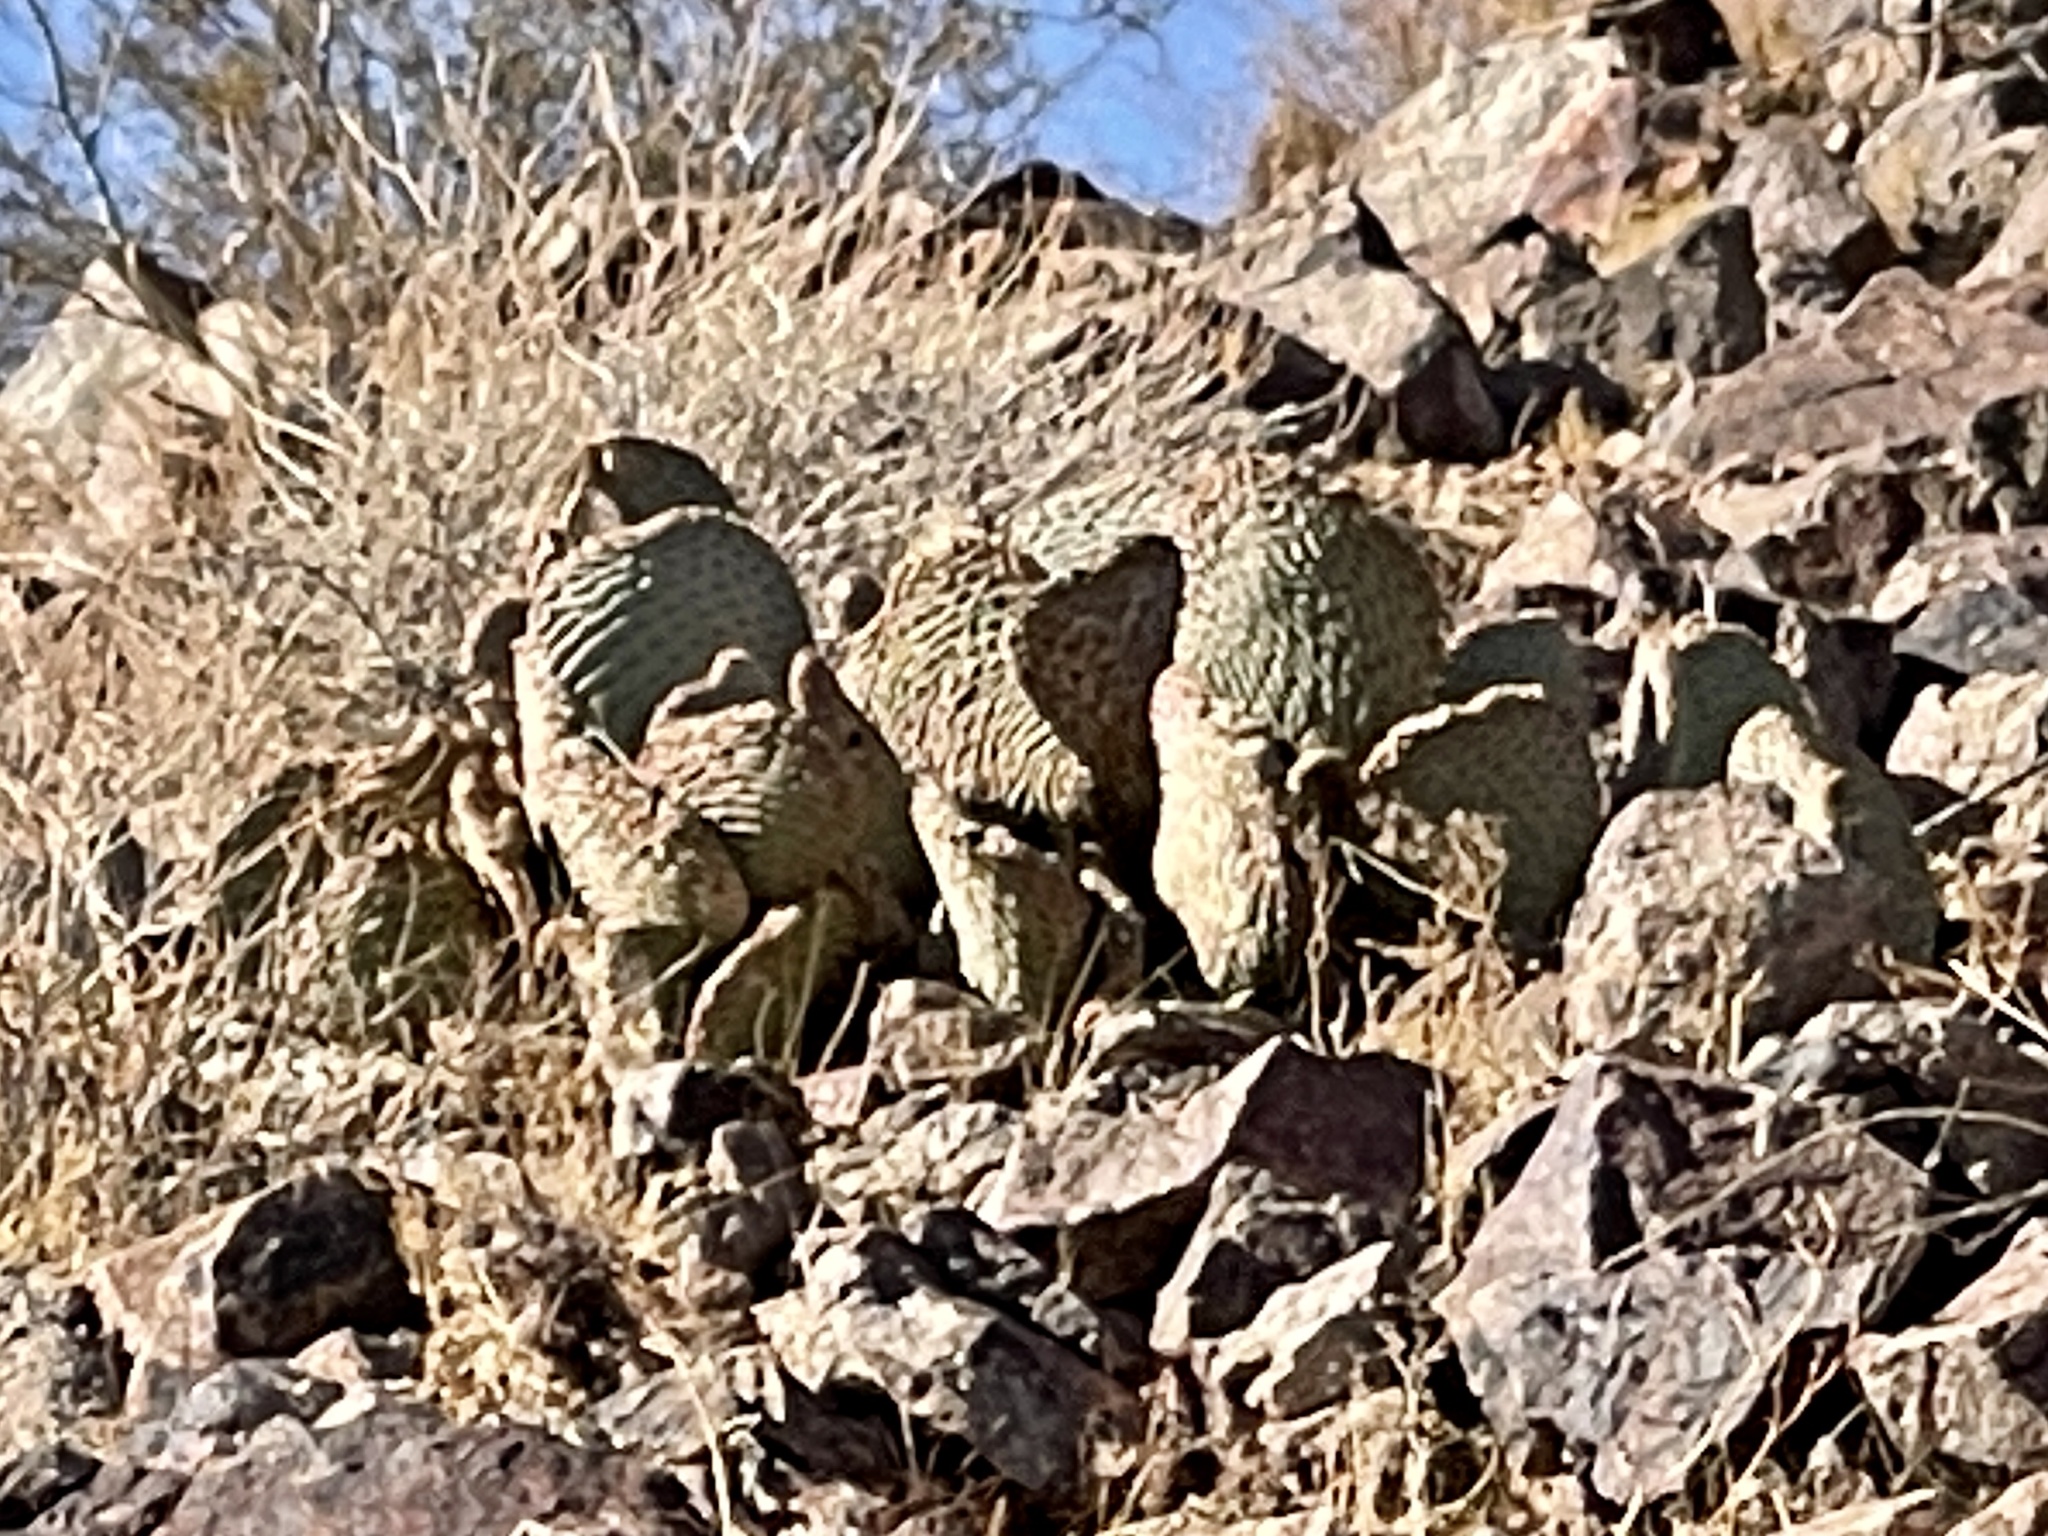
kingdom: Plantae
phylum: Tracheophyta
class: Magnoliopsida
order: Caryophyllales
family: Cactaceae
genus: Opuntia
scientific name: Opuntia basilaris
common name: Beavertail prickly-pear
